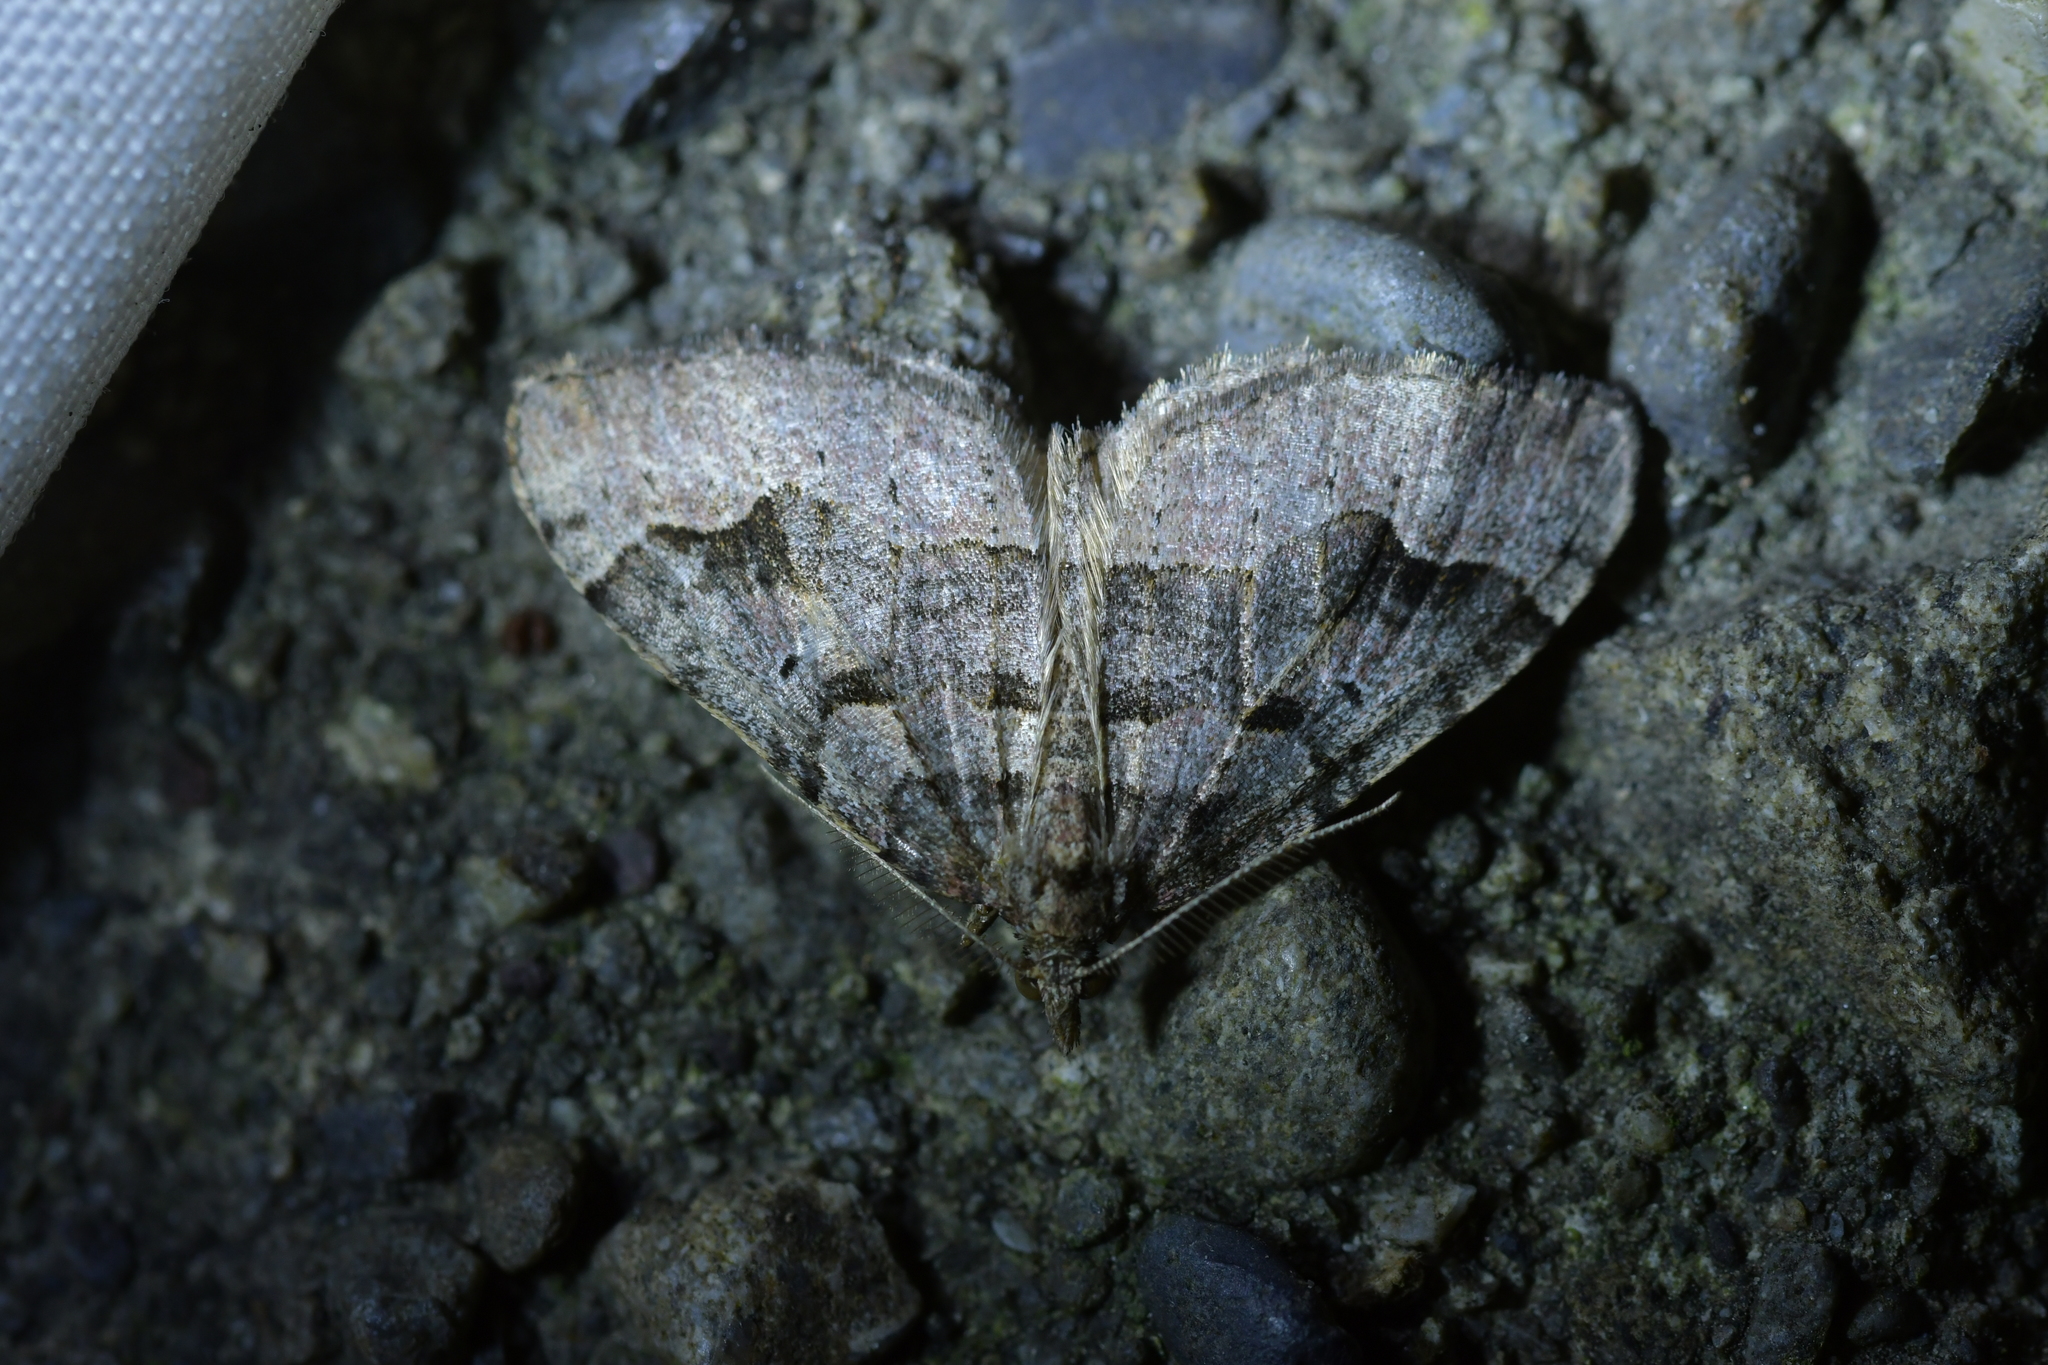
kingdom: Animalia
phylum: Arthropoda
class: Insecta
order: Lepidoptera
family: Geometridae
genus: Epyaxa
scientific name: Epyaxa rosearia
